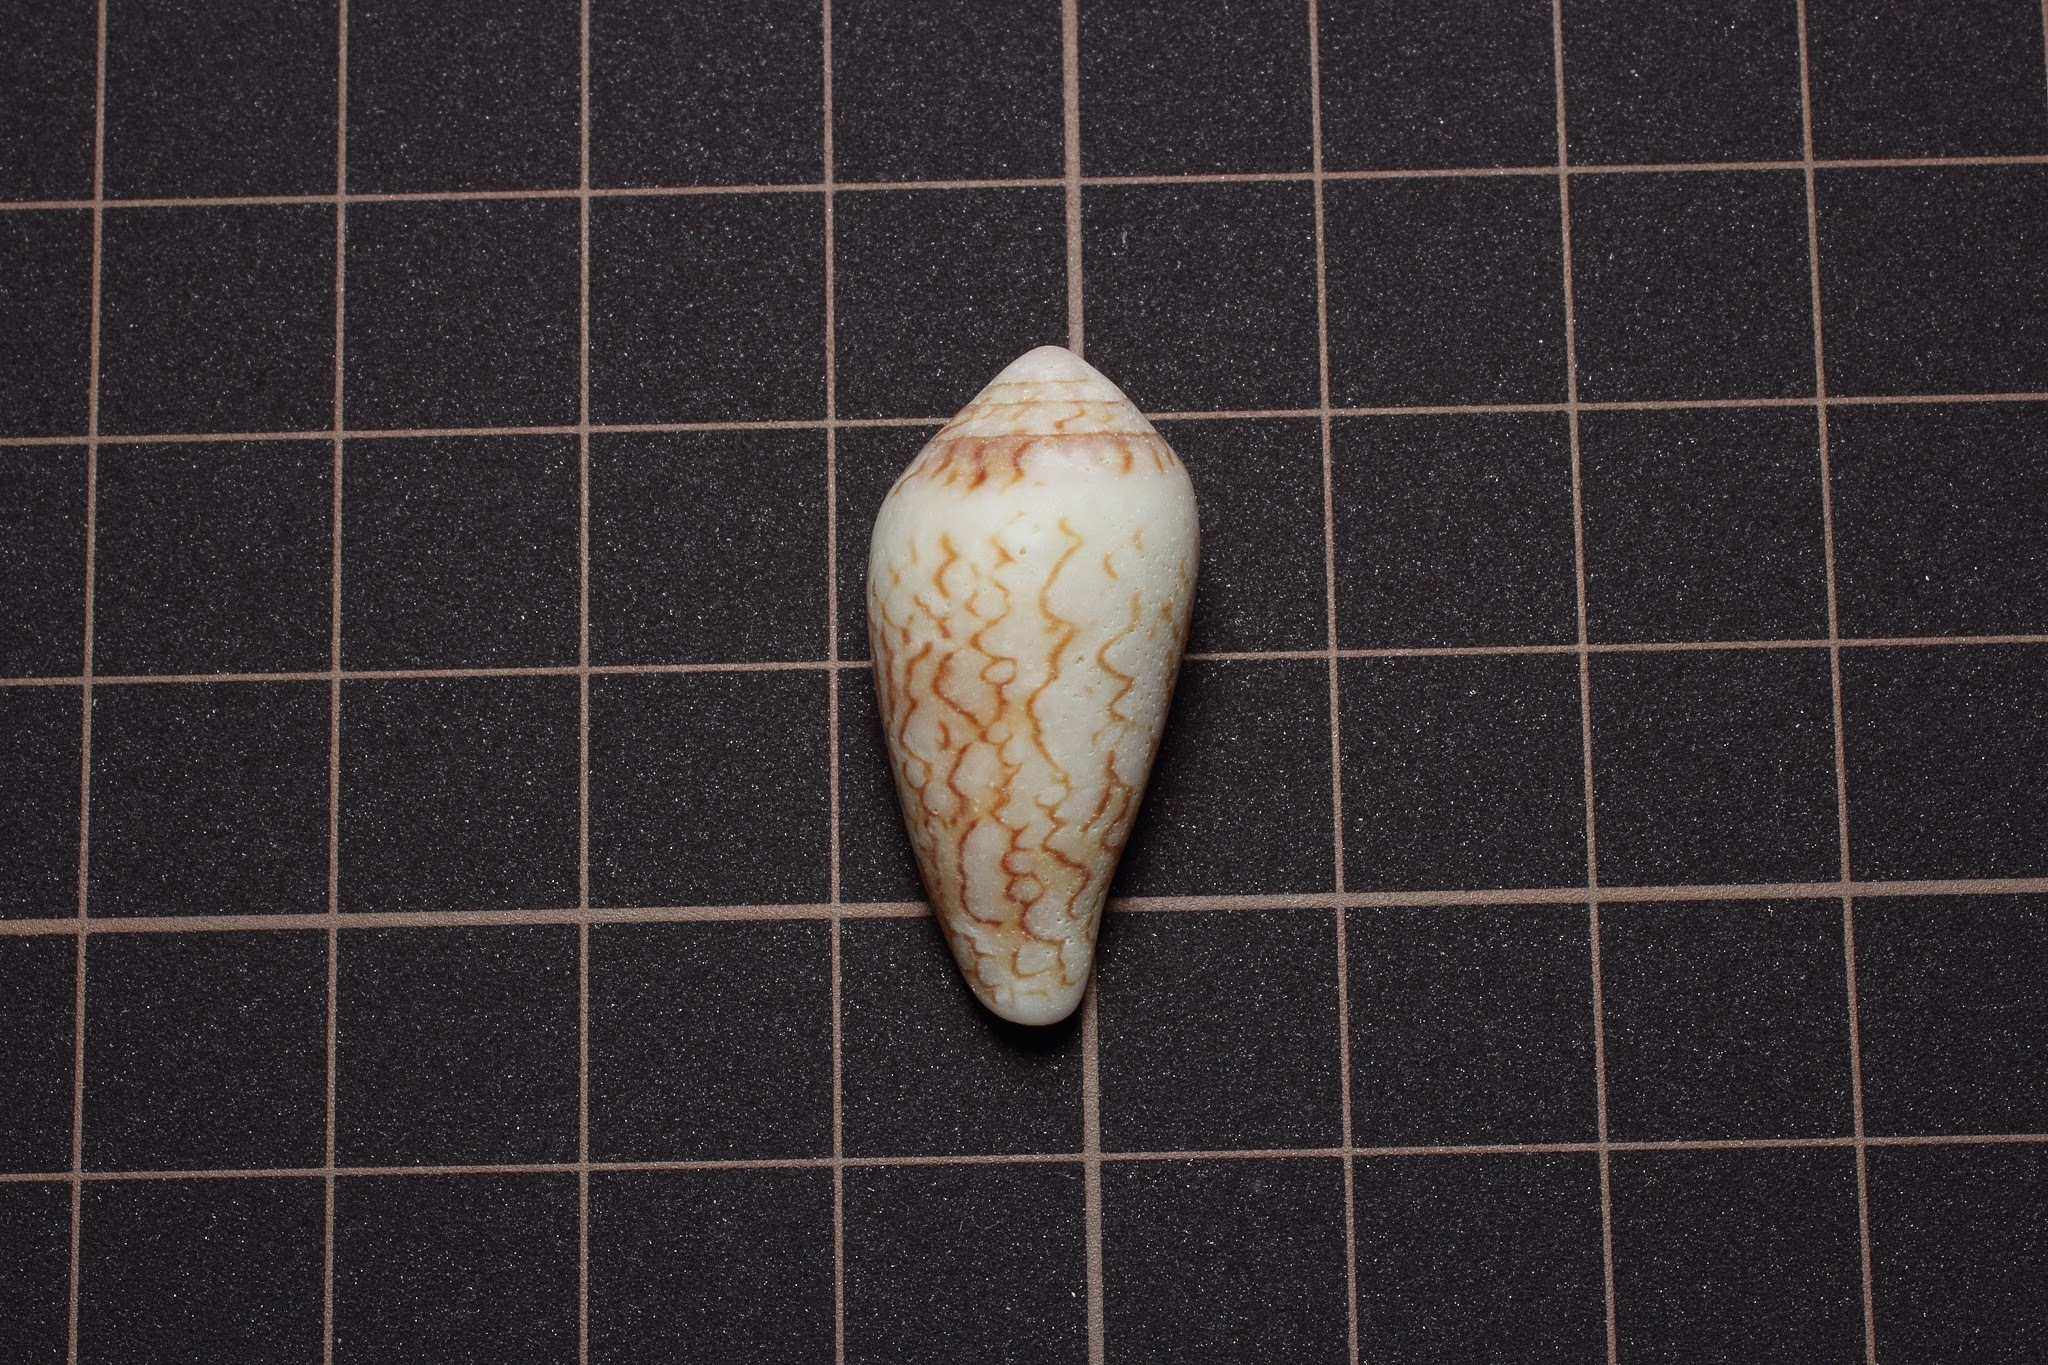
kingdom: Animalia
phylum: Mollusca
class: Gastropoda
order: Neogastropoda
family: Conidae
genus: Conus
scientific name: Conus textile
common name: Cloth-of-gold cone
